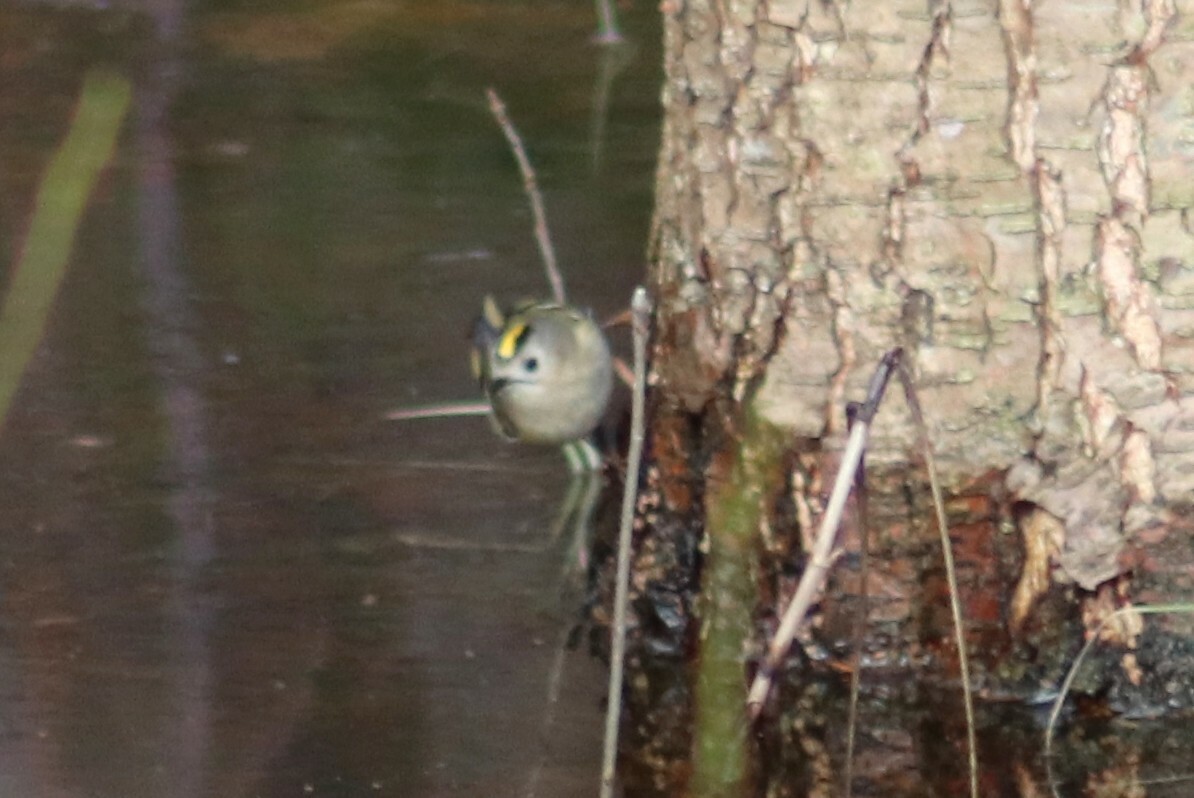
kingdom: Animalia
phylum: Chordata
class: Aves
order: Passeriformes
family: Regulidae
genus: Regulus
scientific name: Regulus regulus
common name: Goldcrest
